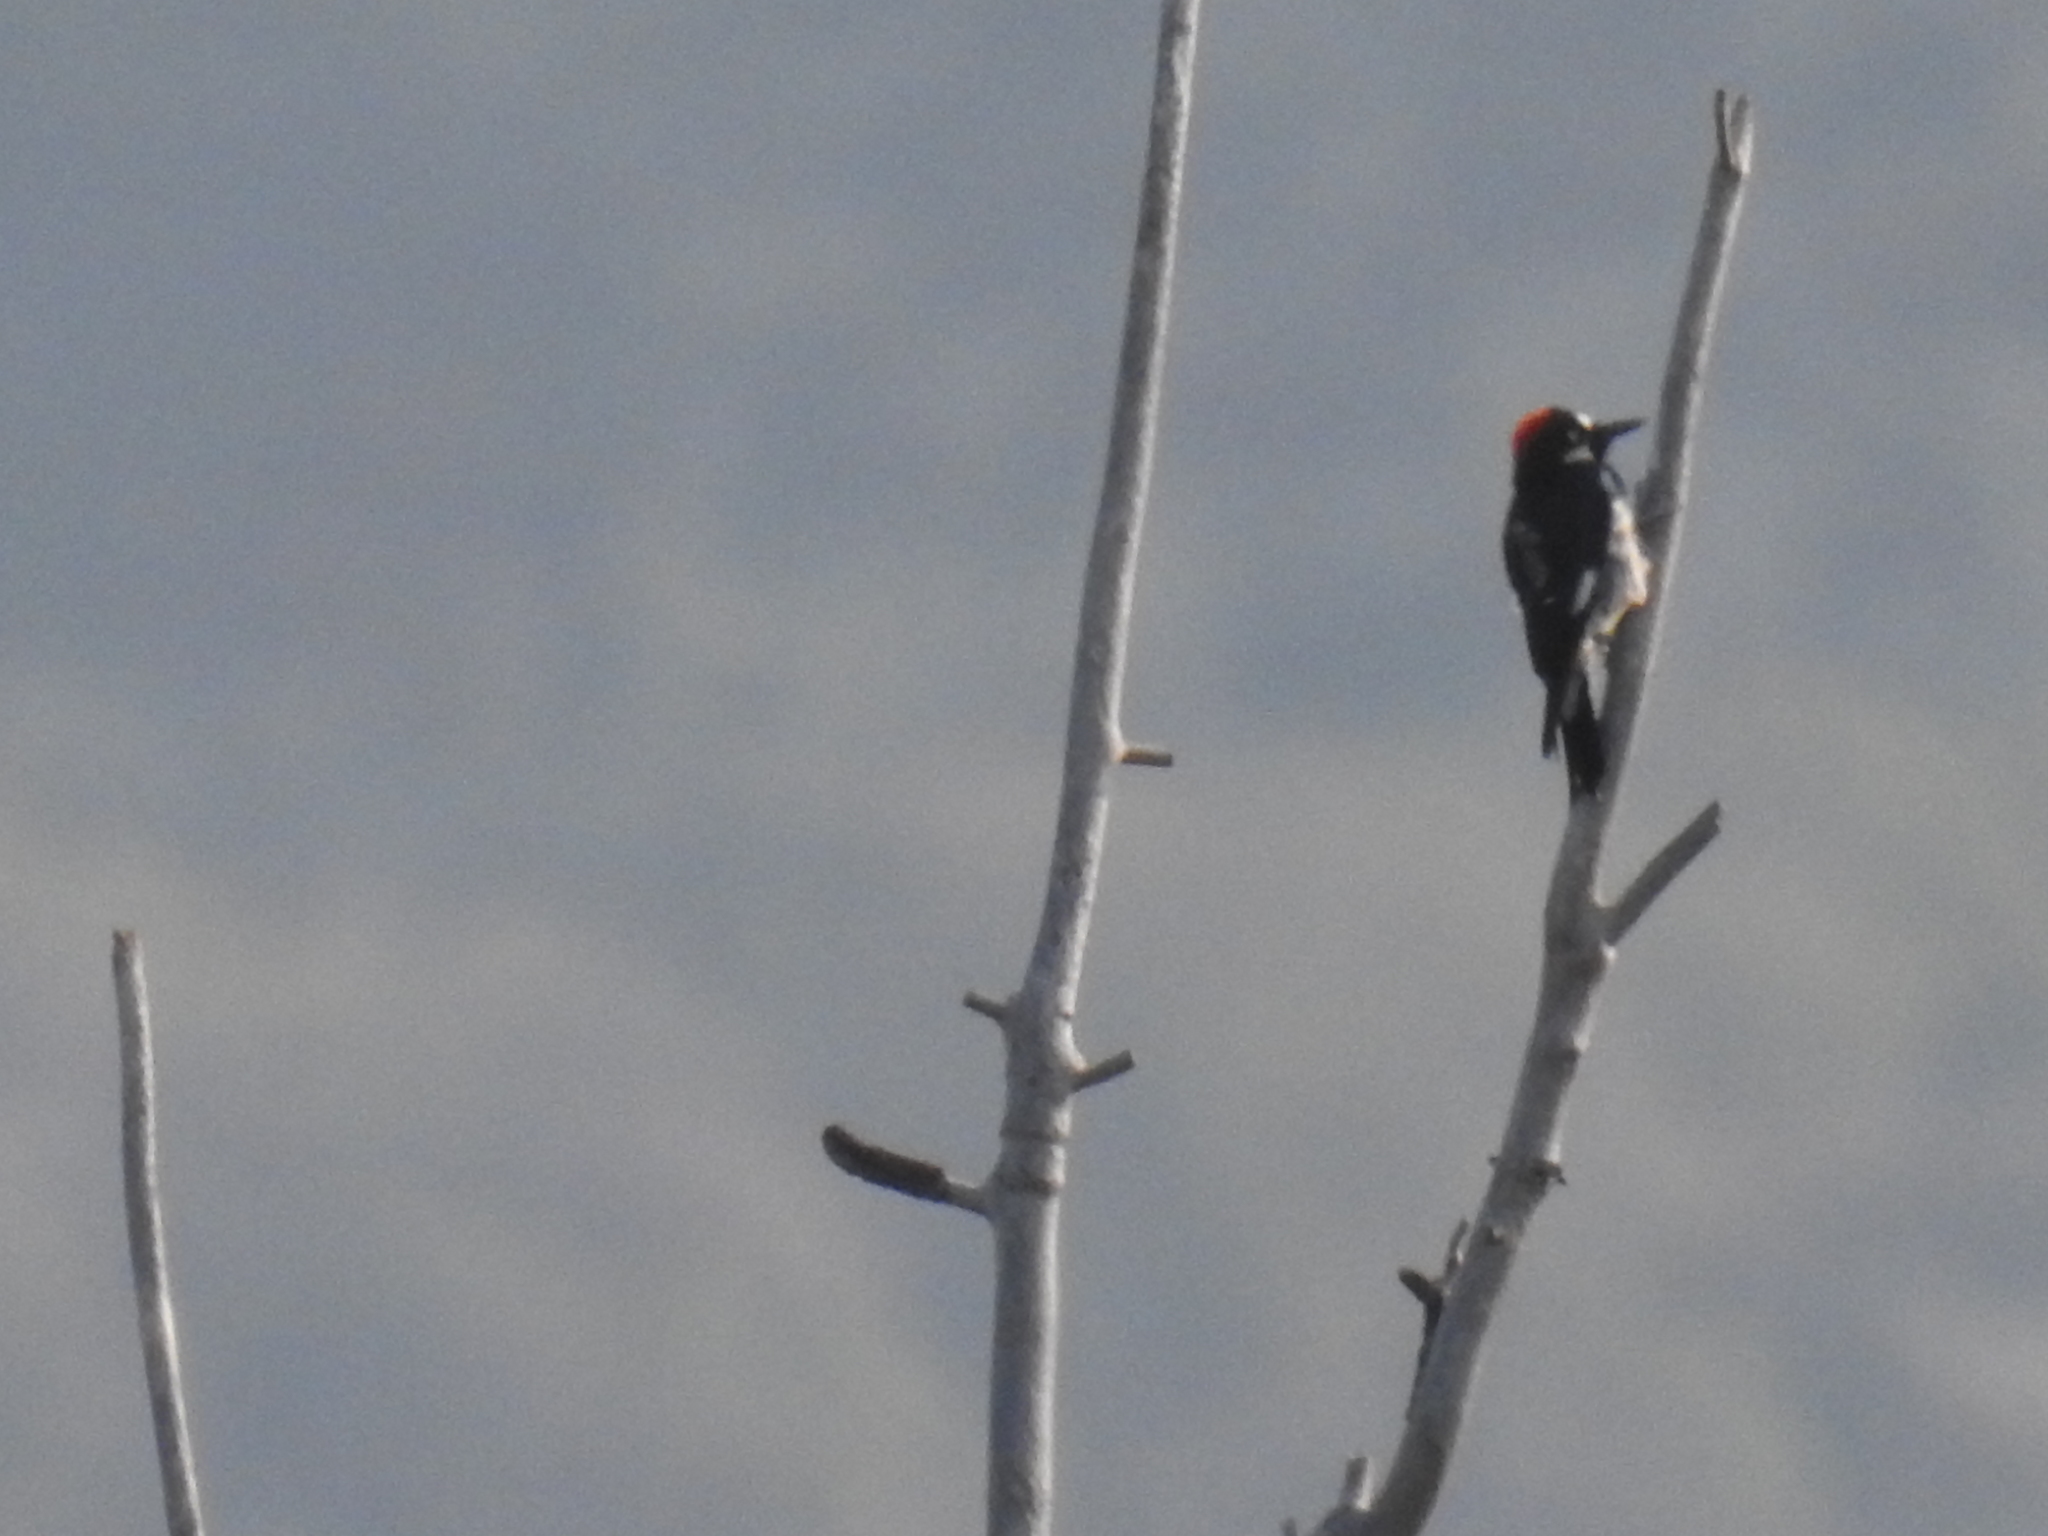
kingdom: Animalia
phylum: Chordata
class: Aves
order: Piciformes
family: Picidae
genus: Melanerpes
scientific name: Melanerpes formicivorus
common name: Acorn woodpecker
